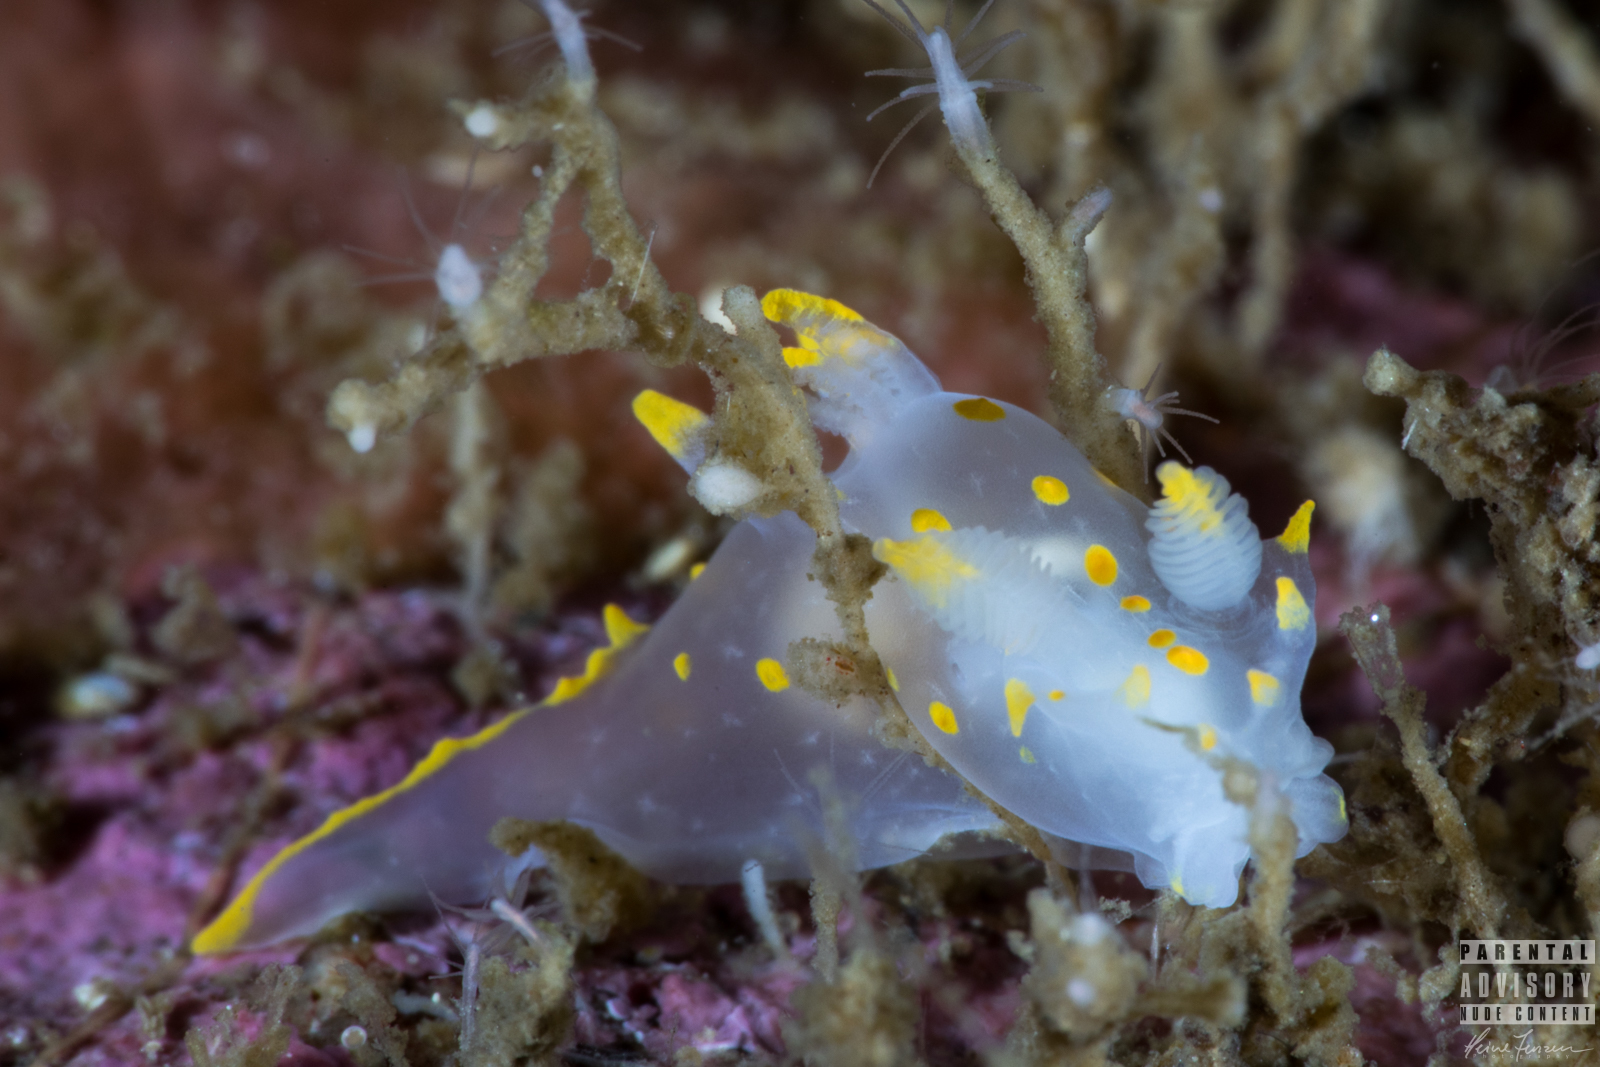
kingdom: Animalia
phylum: Mollusca
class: Gastropoda
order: Nudibranchia
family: Polyceridae
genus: Polycera
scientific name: Polycera quadrilineata
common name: Four-striped polycera
